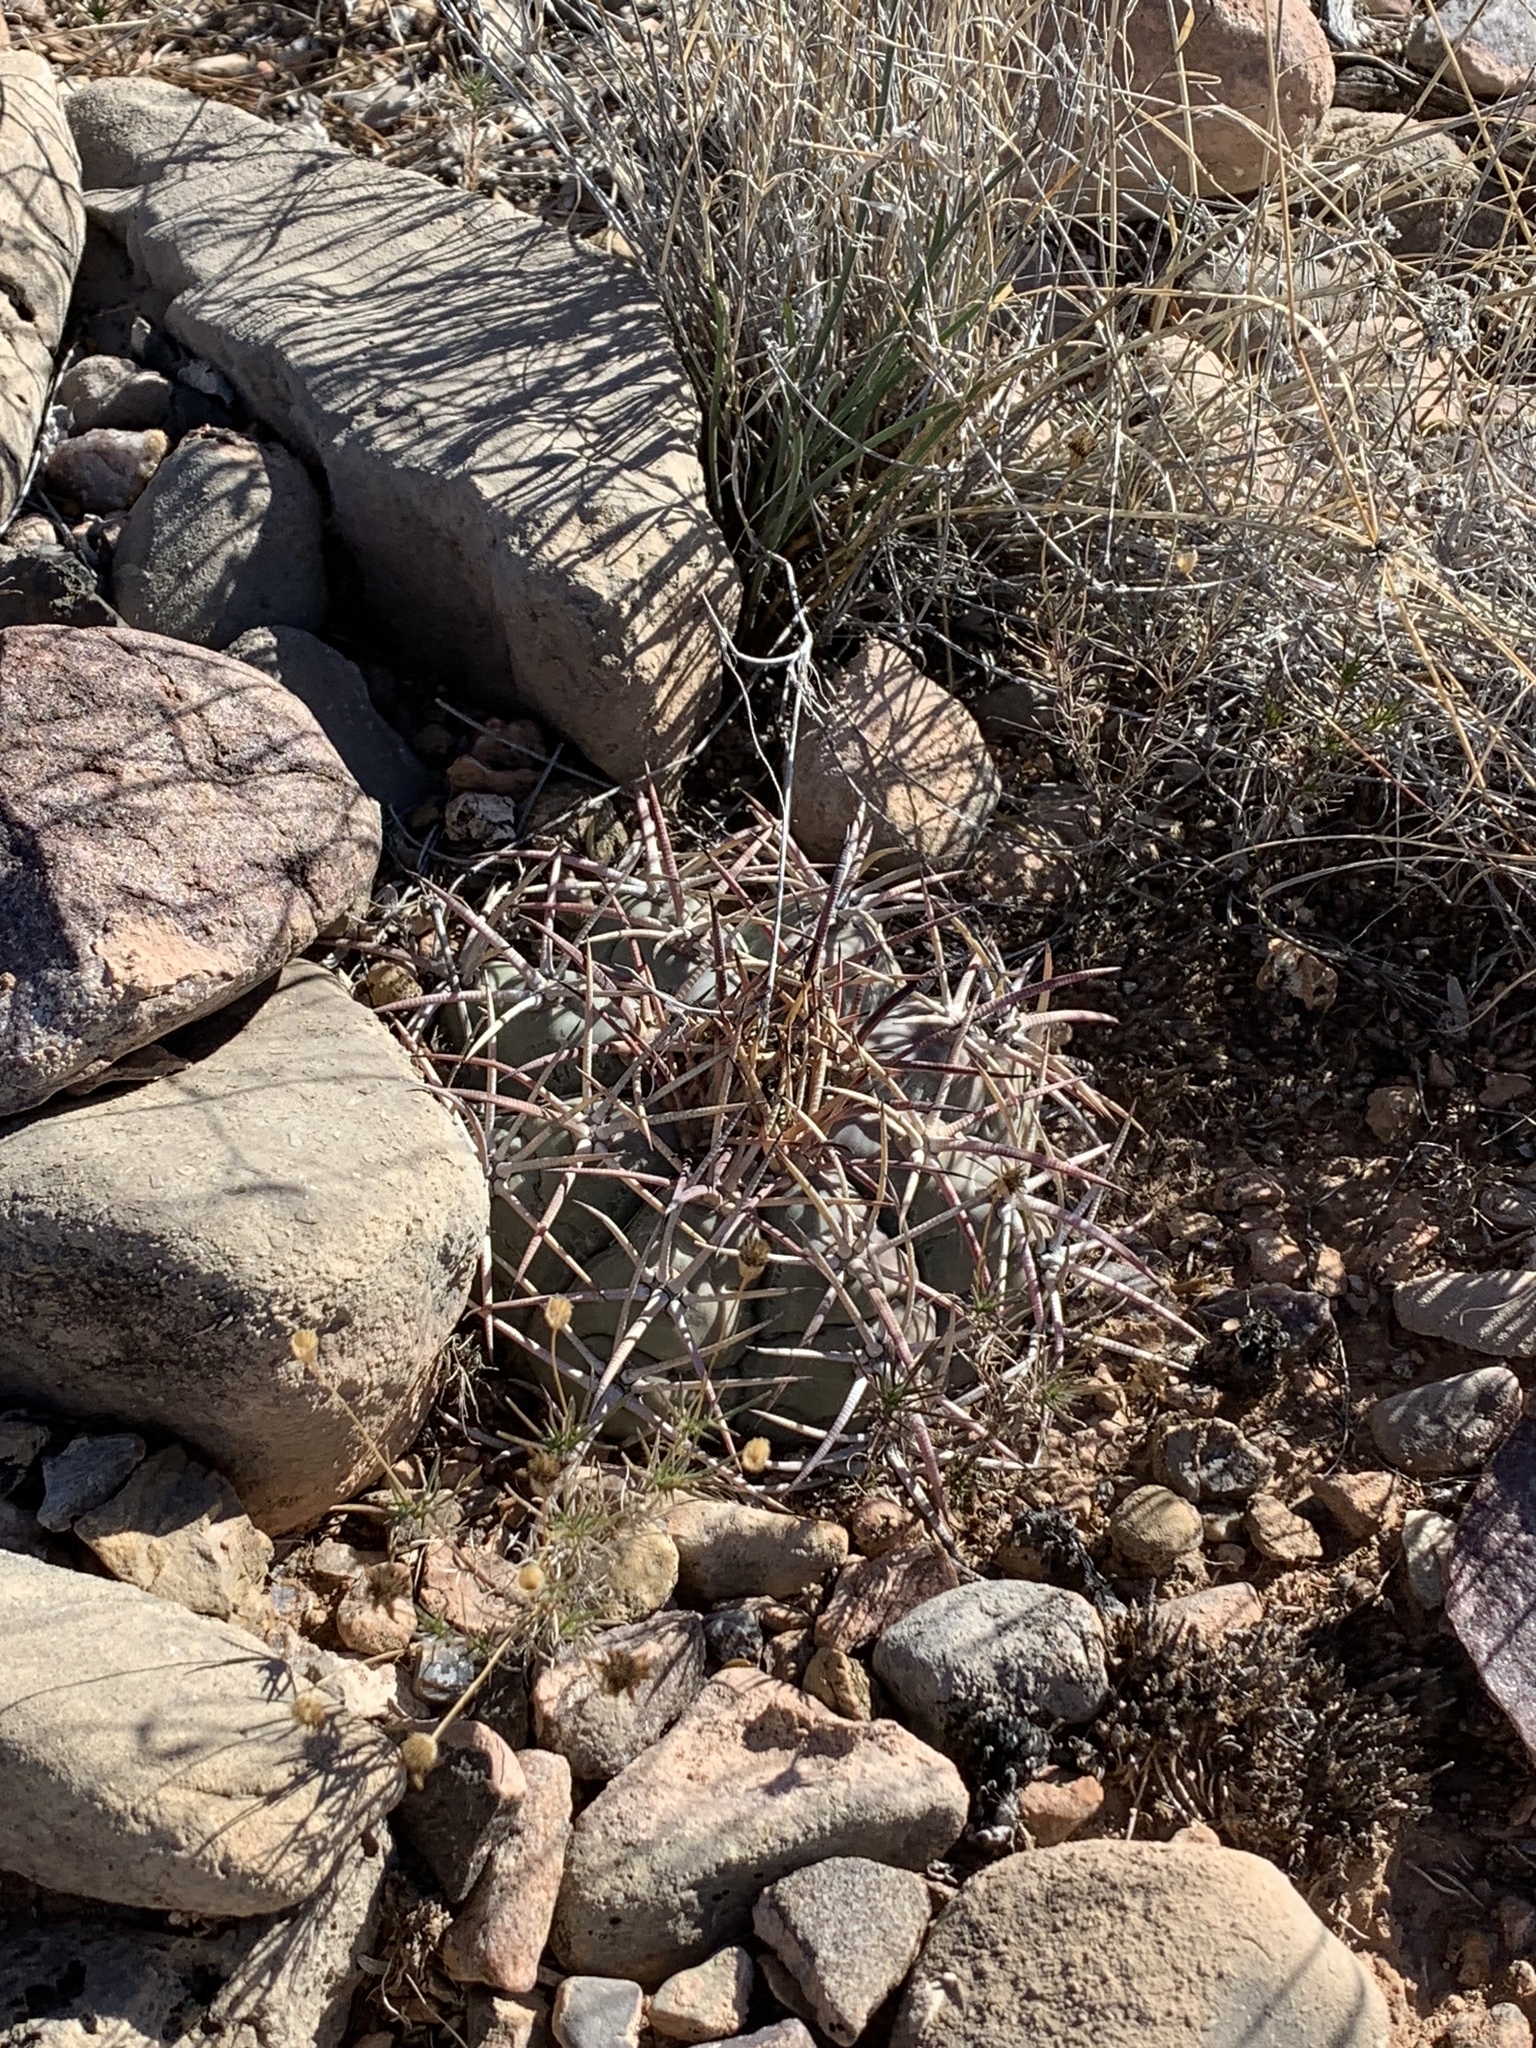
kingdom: Plantae
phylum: Tracheophyta
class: Magnoliopsida
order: Caryophyllales
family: Cactaceae
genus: Echinocactus
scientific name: Echinocactus horizonthalonius
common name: Devilshead
